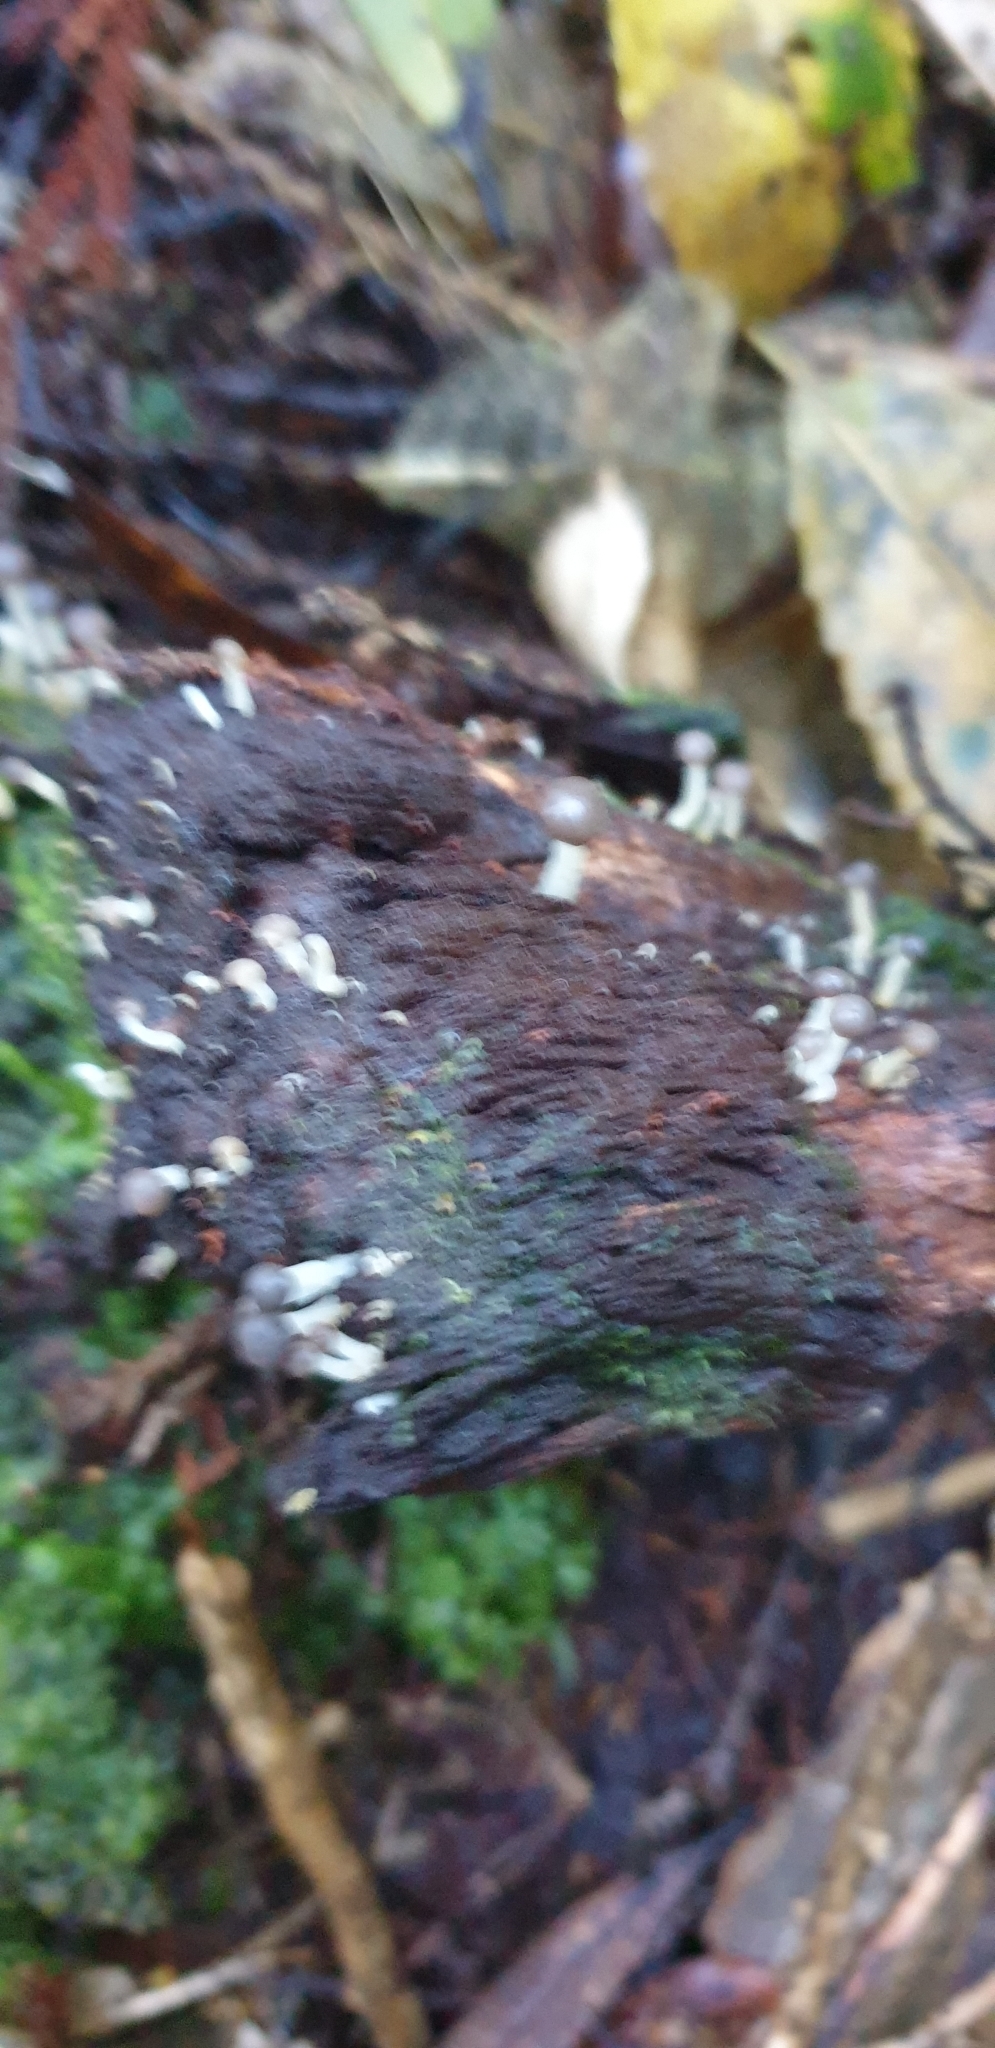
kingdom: Fungi
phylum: Ascomycota
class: Leotiomycetes
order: Helotiales
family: Vibrisseaceae
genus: Chlorovibrissea
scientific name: Chlorovibrissea albofusca
